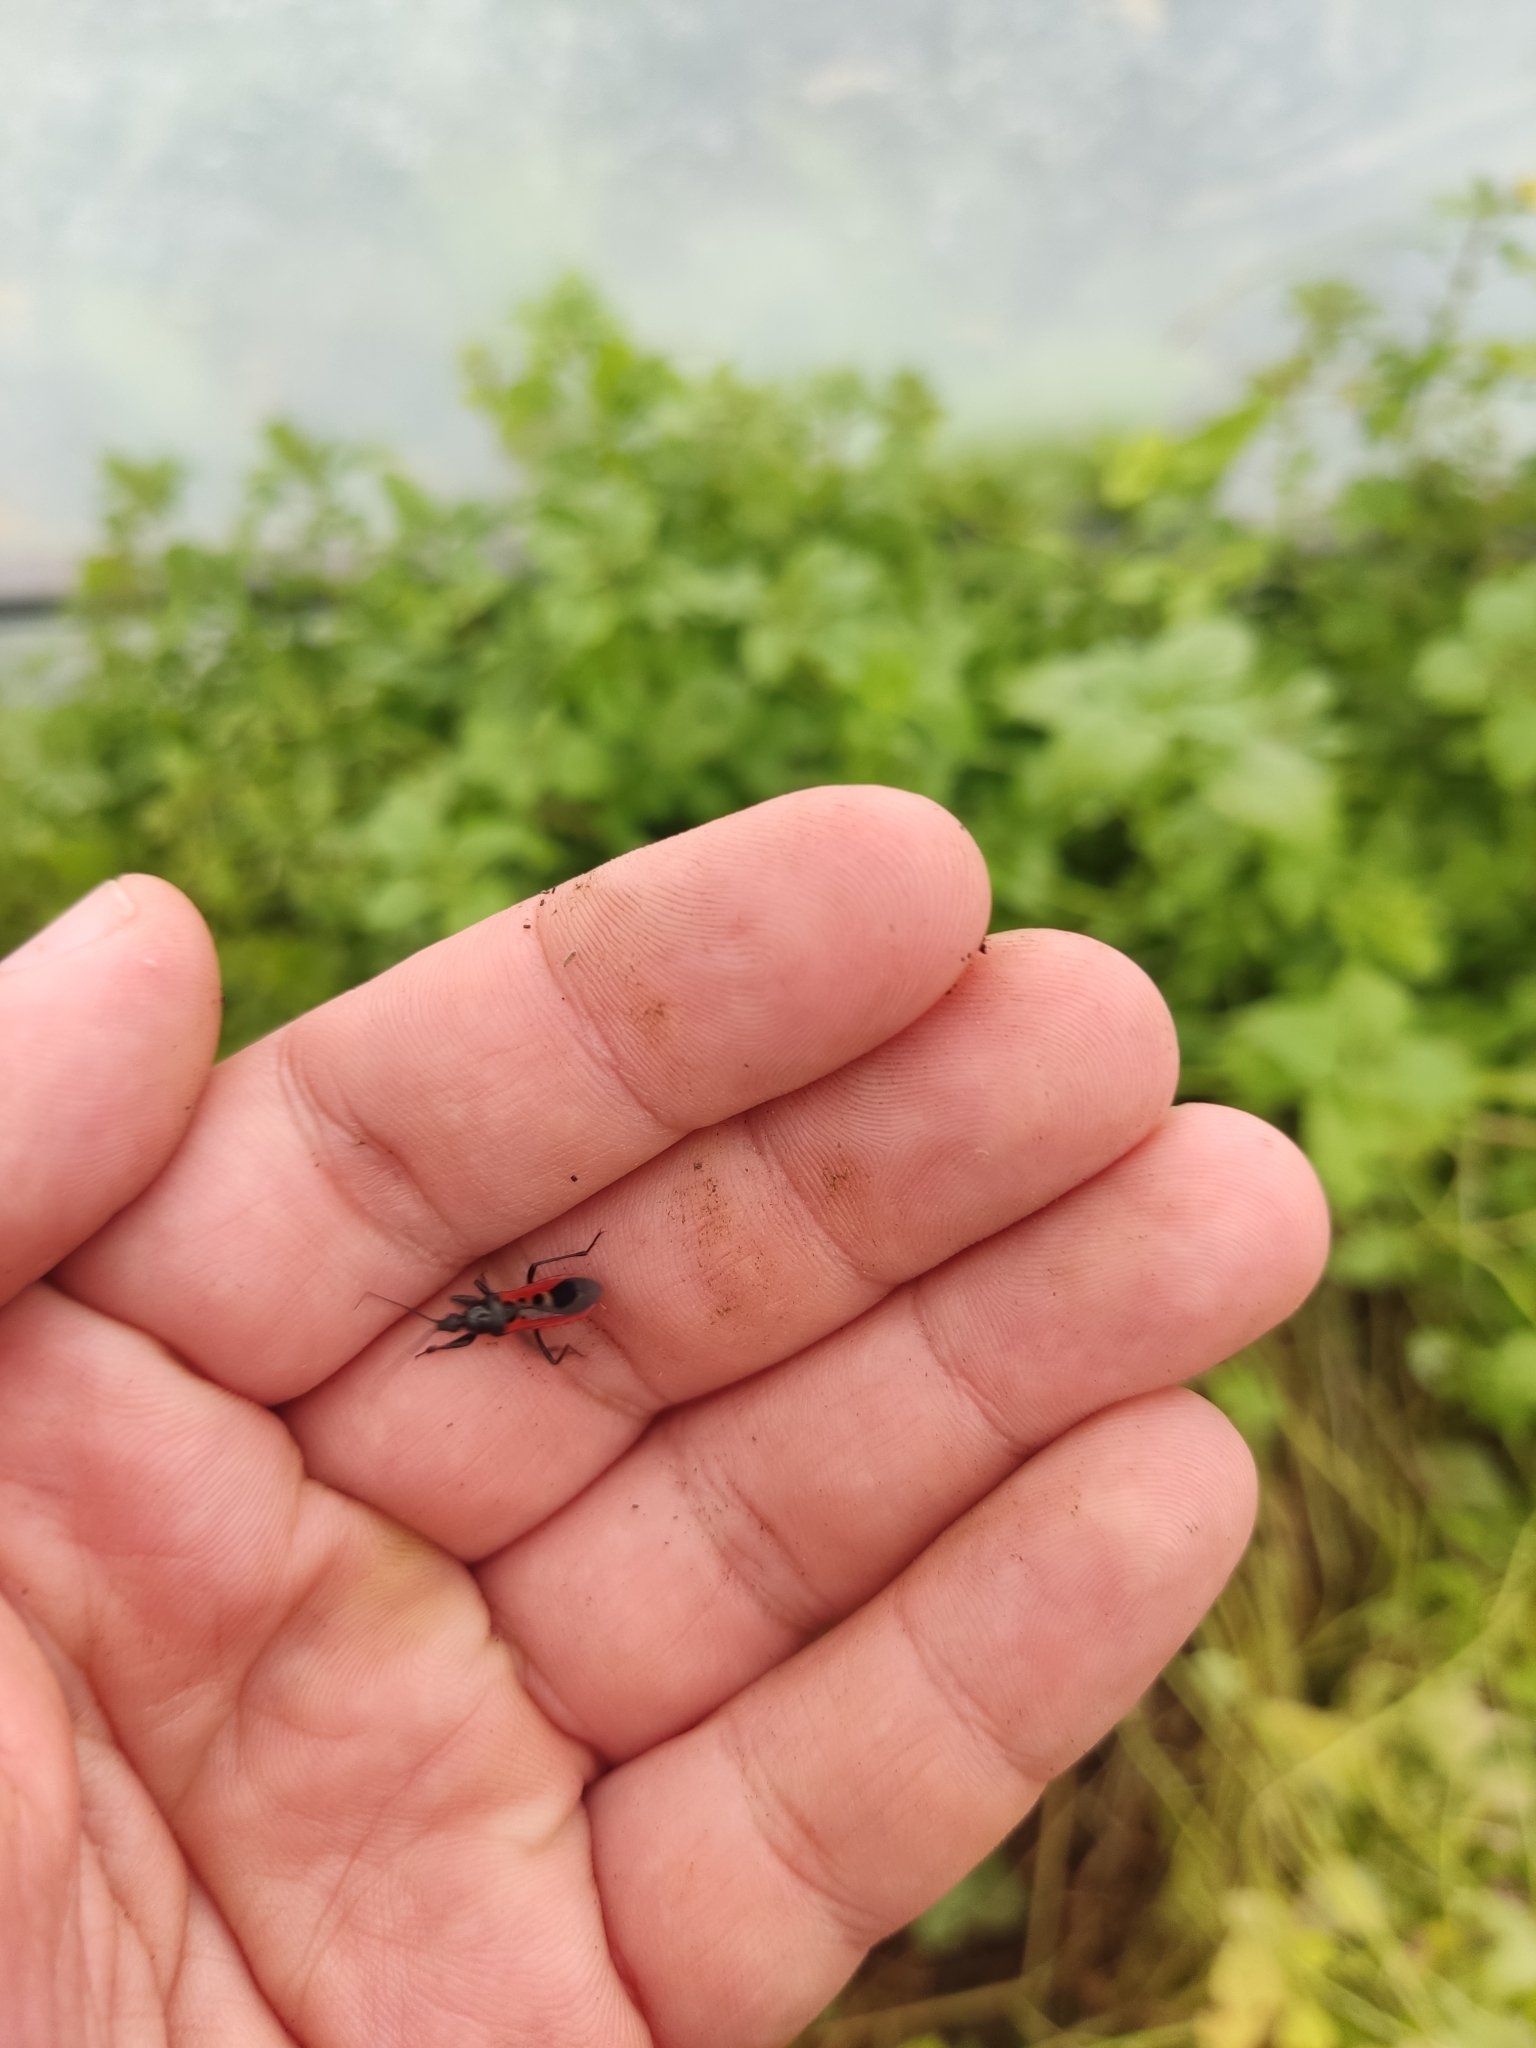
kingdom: Animalia
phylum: Arthropoda
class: Insecta
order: Hemiptera
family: Reduviidae
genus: Peirates
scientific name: Peirates hybridus
